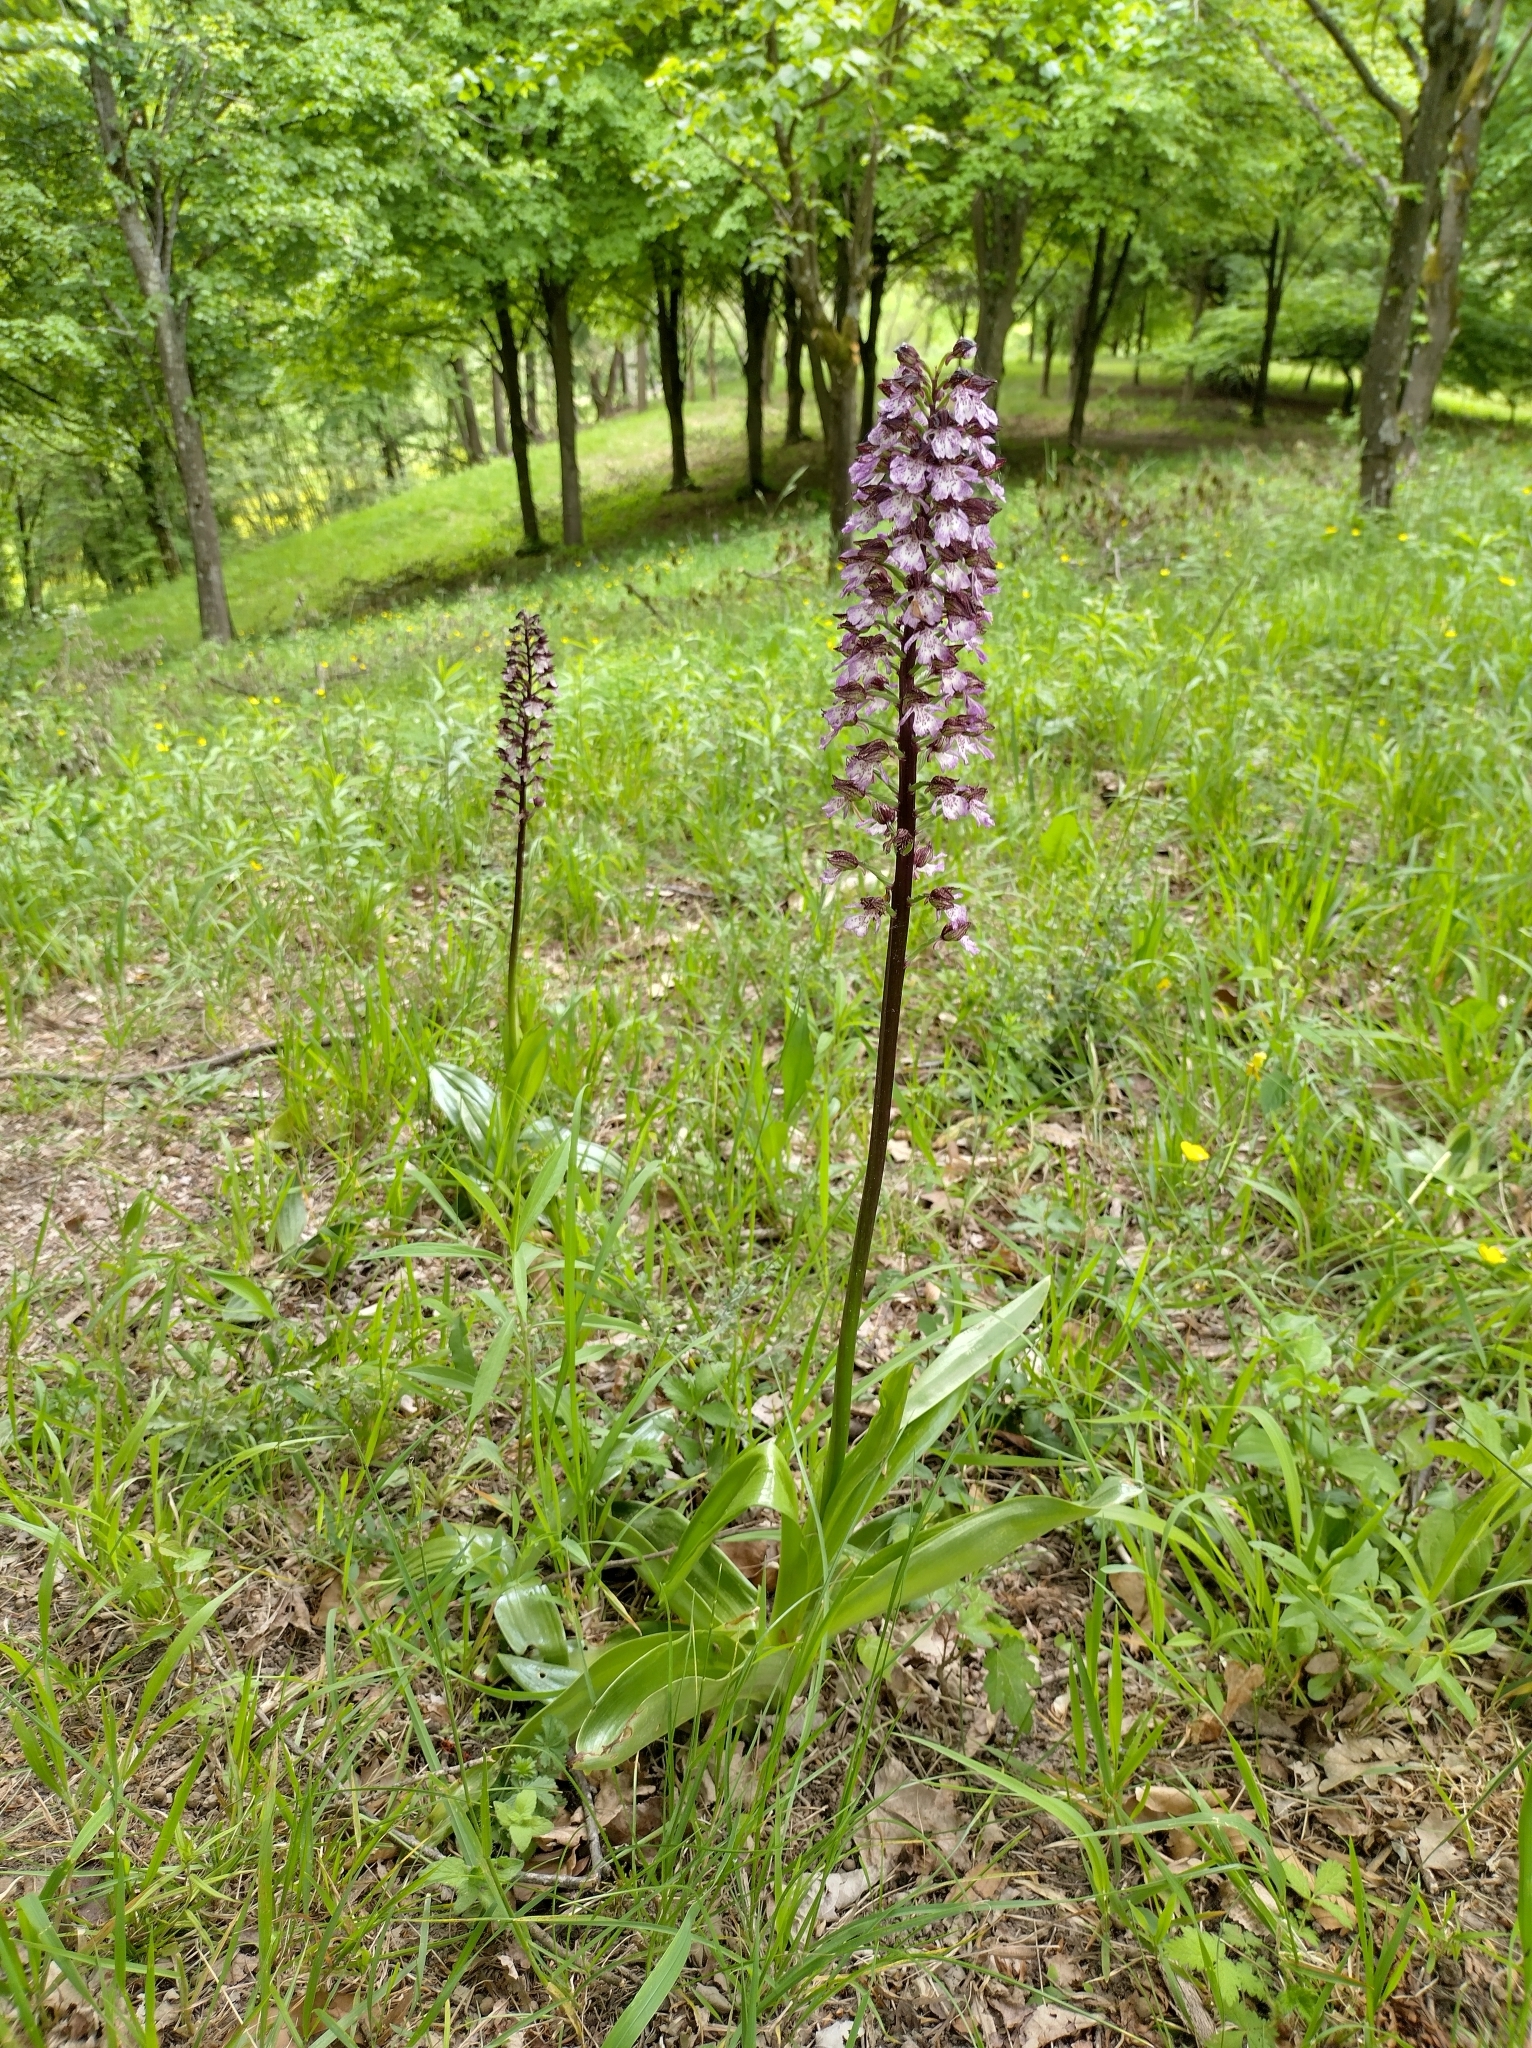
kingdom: Plantae
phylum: Tracheophyta
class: Liliopsida
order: Asparagales
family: Orchidaceae
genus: Orchis
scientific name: Orchis purpurea
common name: Lady orchid
